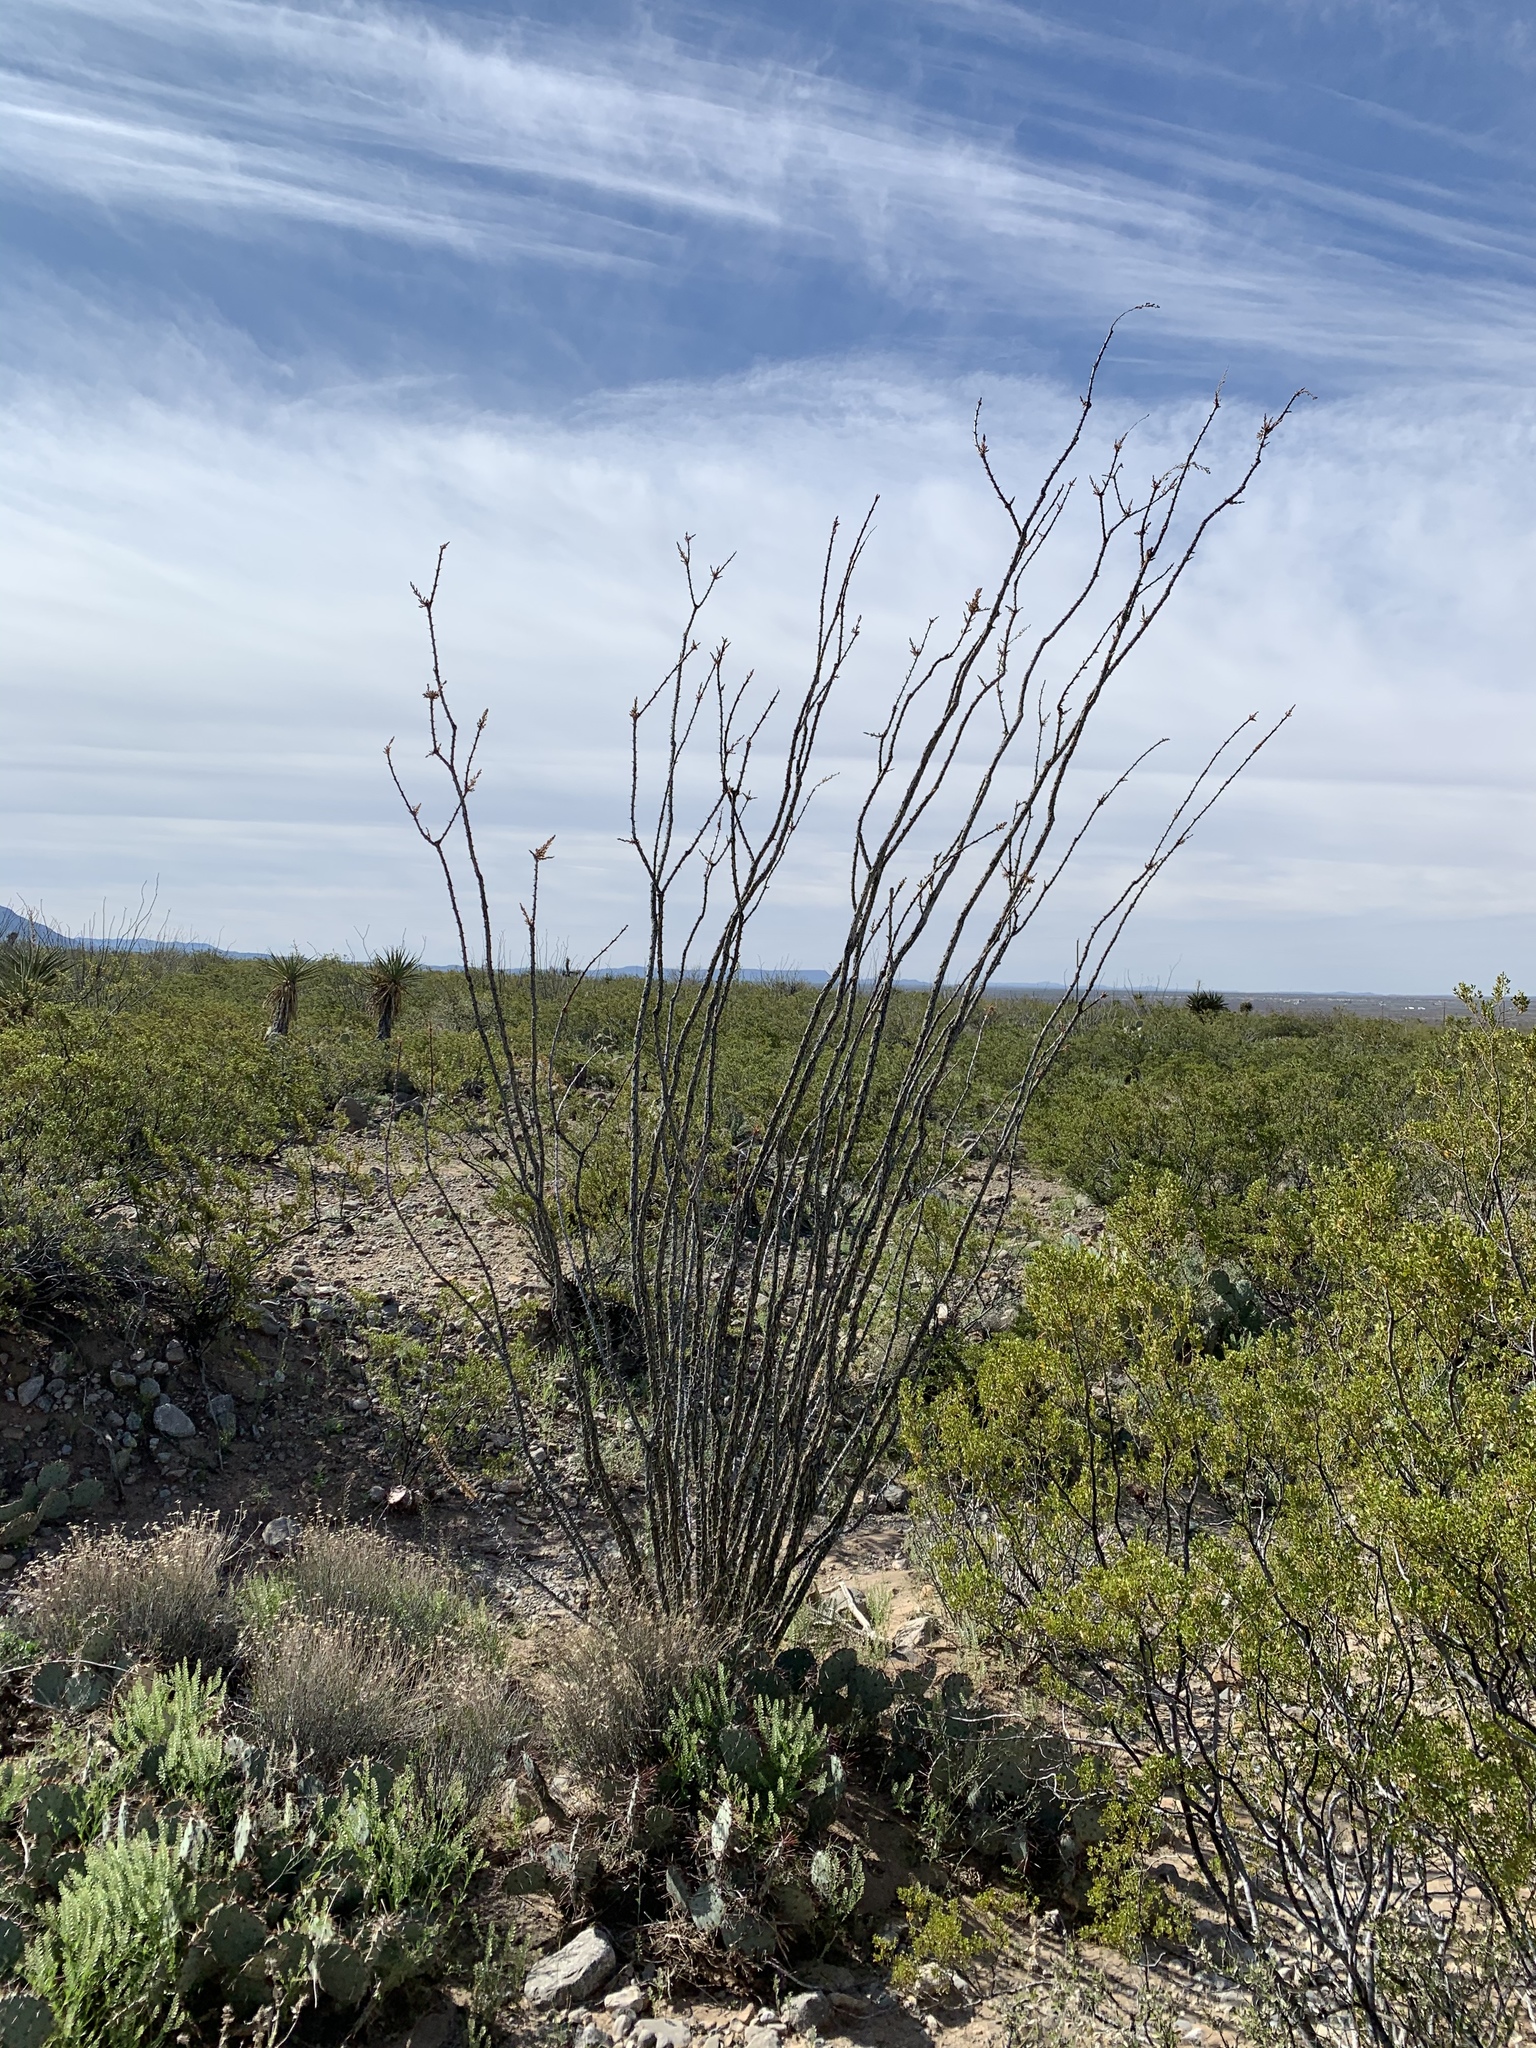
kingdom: Plantae
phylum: Tracheophyta
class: Magnoliopsida
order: Ericales
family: Fouquieriaceae
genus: Fouquieria
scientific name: Fouquieria splendens
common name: Vine-cactus
